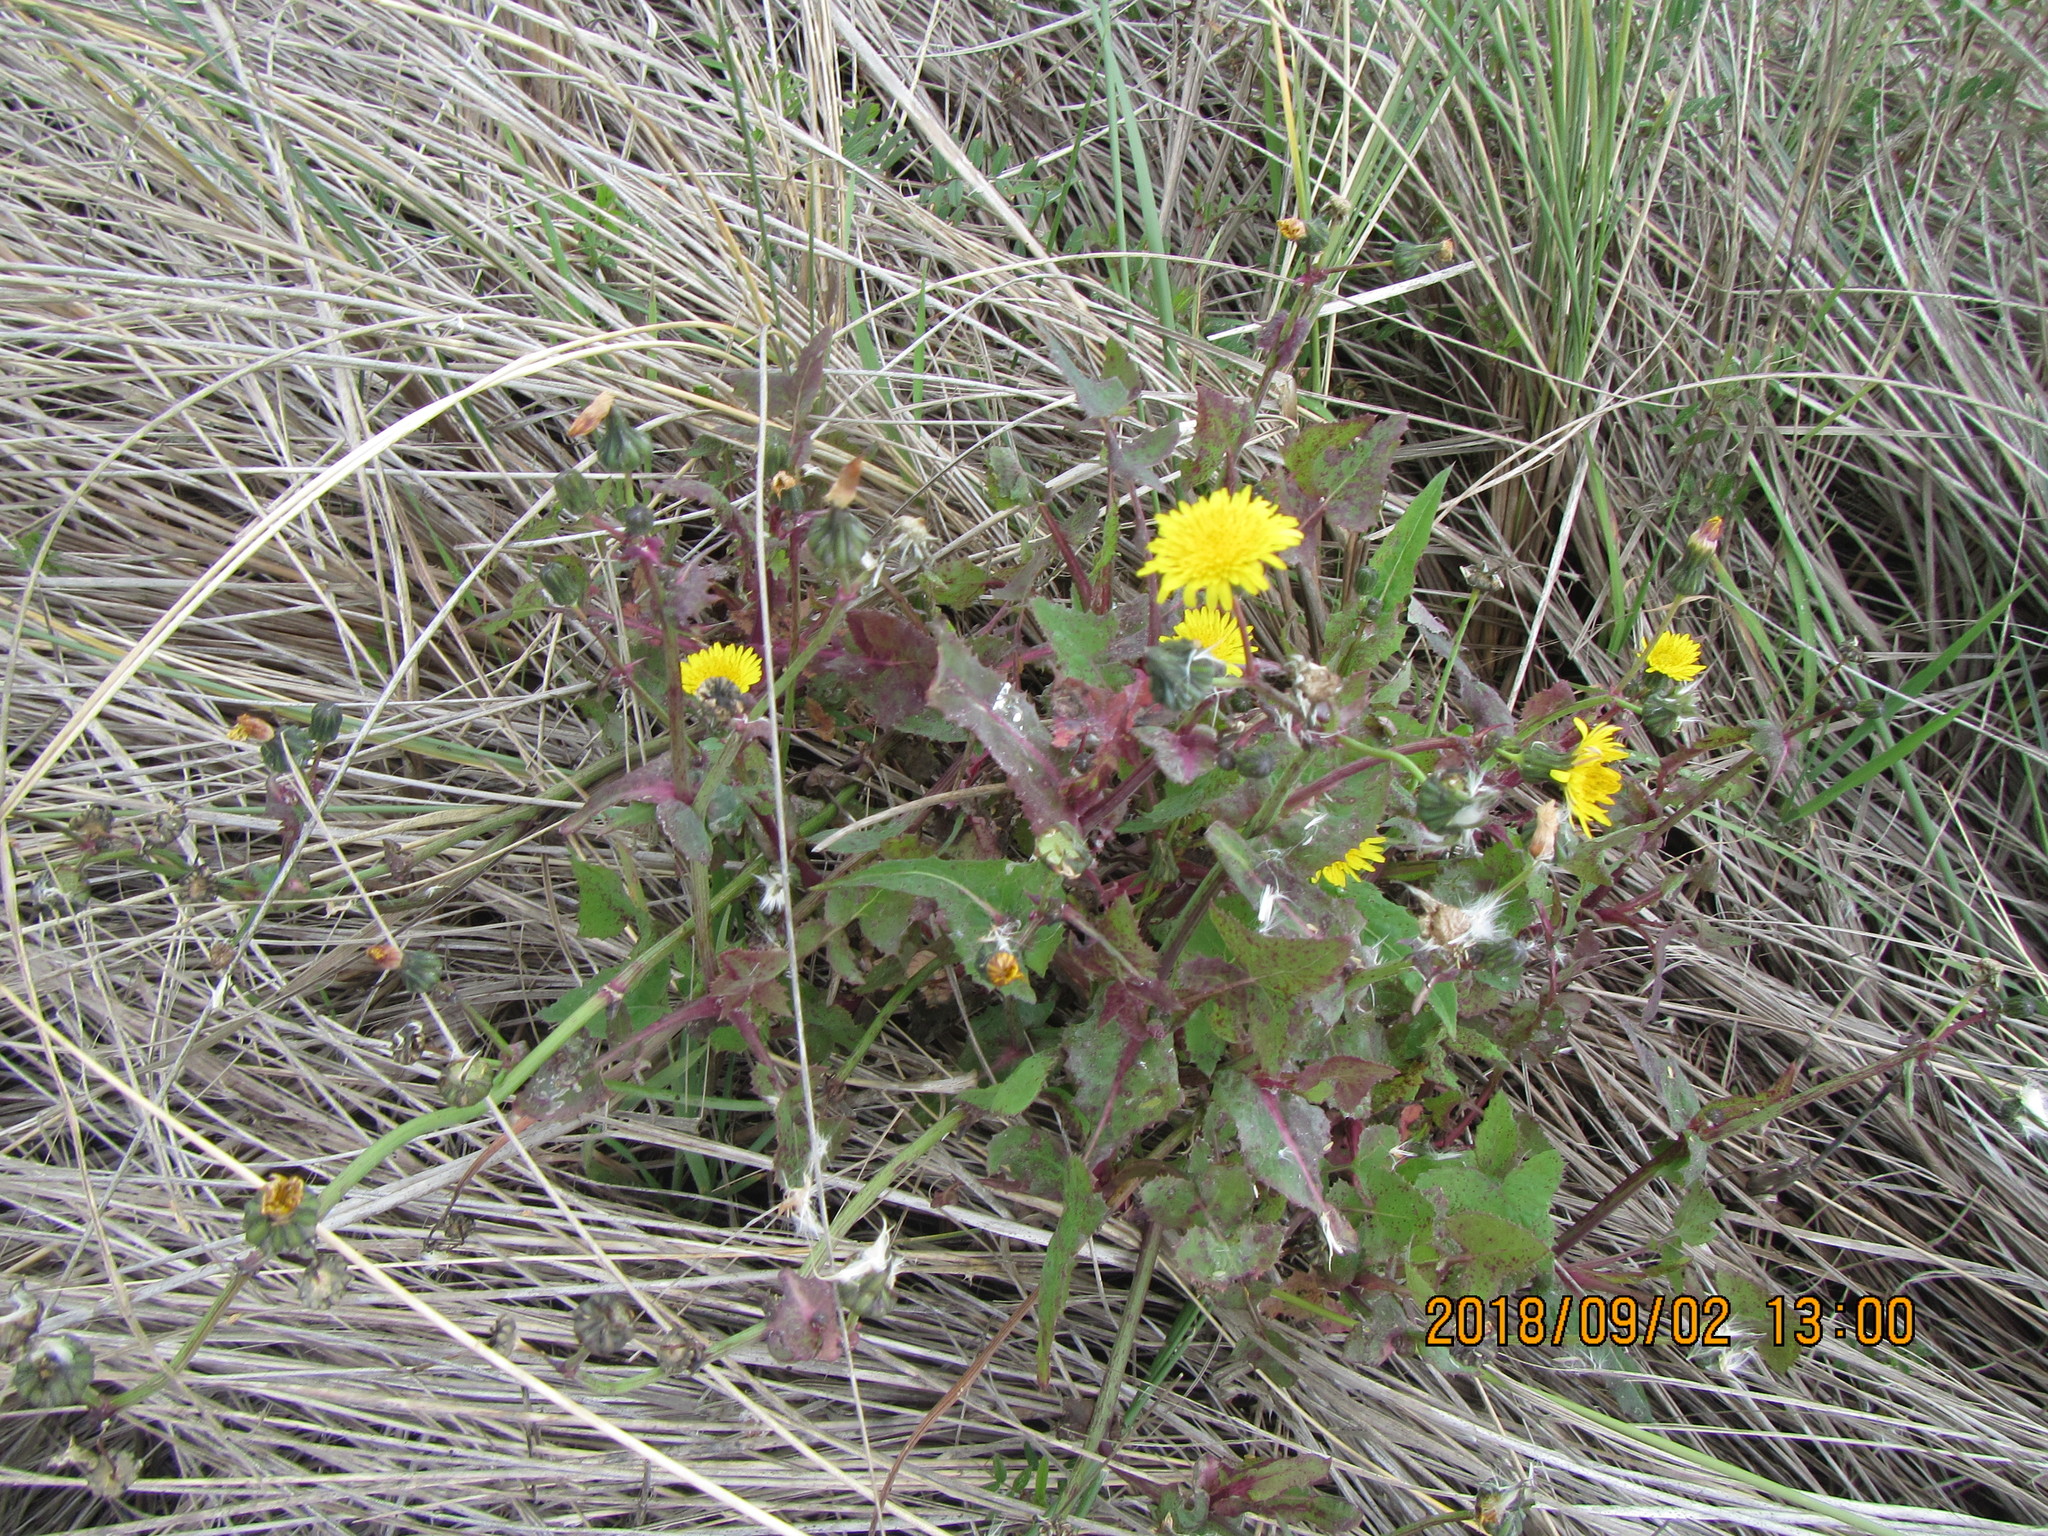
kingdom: Plantae
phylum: Tracheophyta
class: Magnoliopsida
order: Asterales
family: Asteraceae
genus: Sonchus
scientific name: Sonchus oleraceus
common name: Common sowthistle
